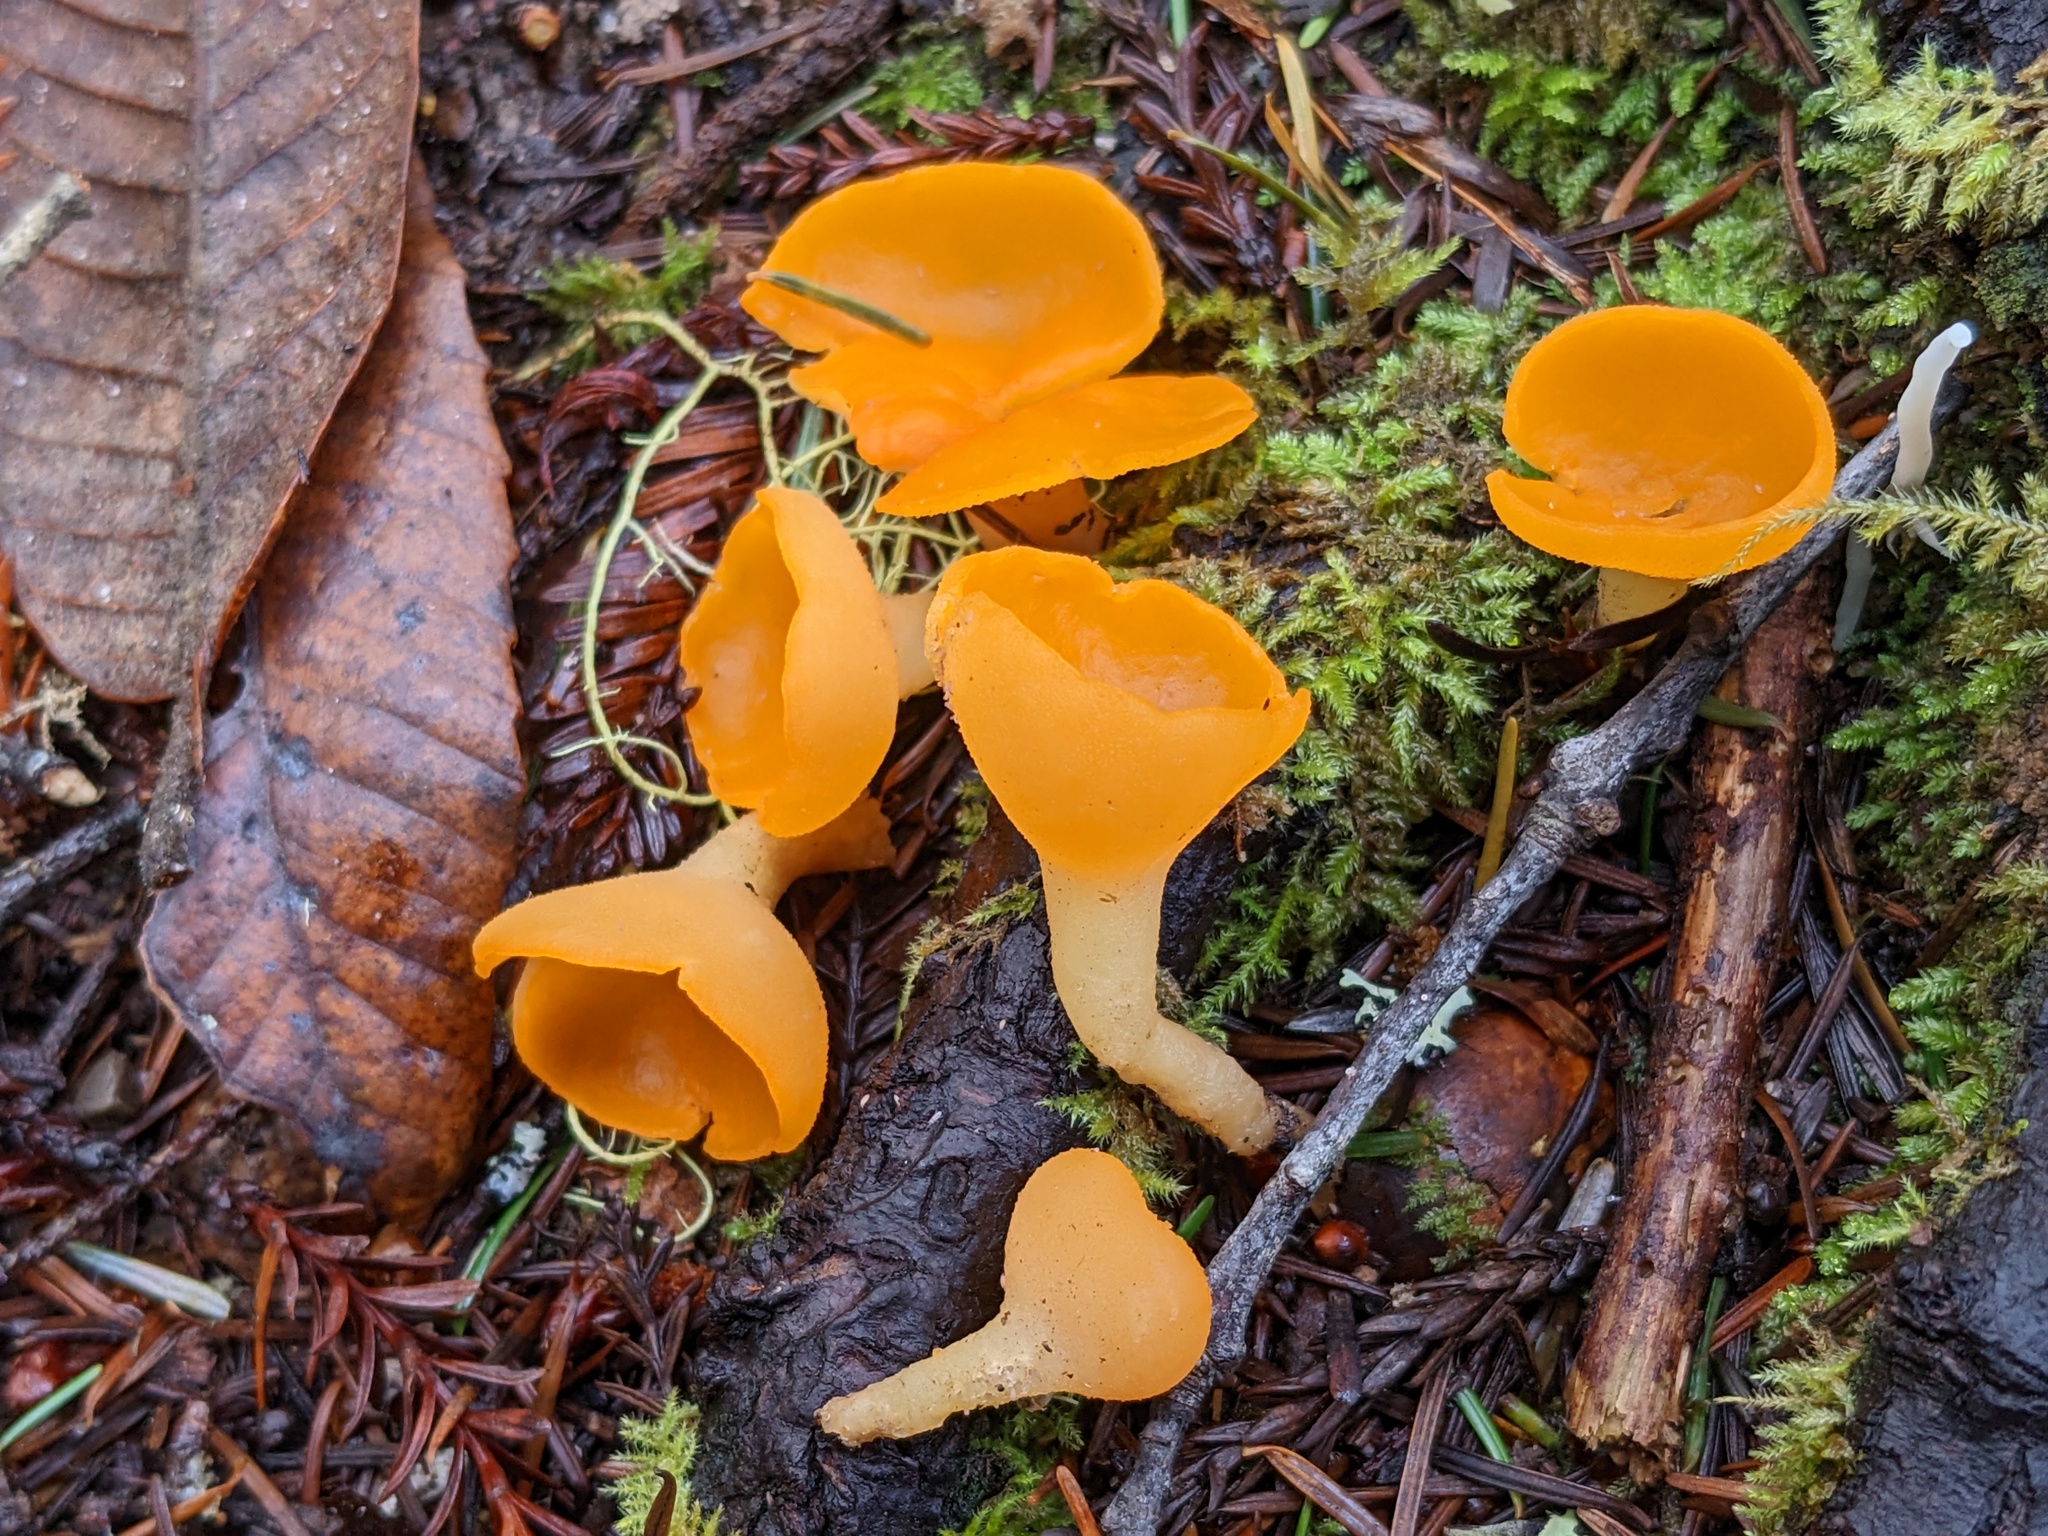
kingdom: Fungi
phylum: Ascomycota
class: Pezizomycetes
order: Pezizales
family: Pyronemataceae
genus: Sowerbyella
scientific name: Sowerbyella rhenana
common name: Stalked orange peel fungus
